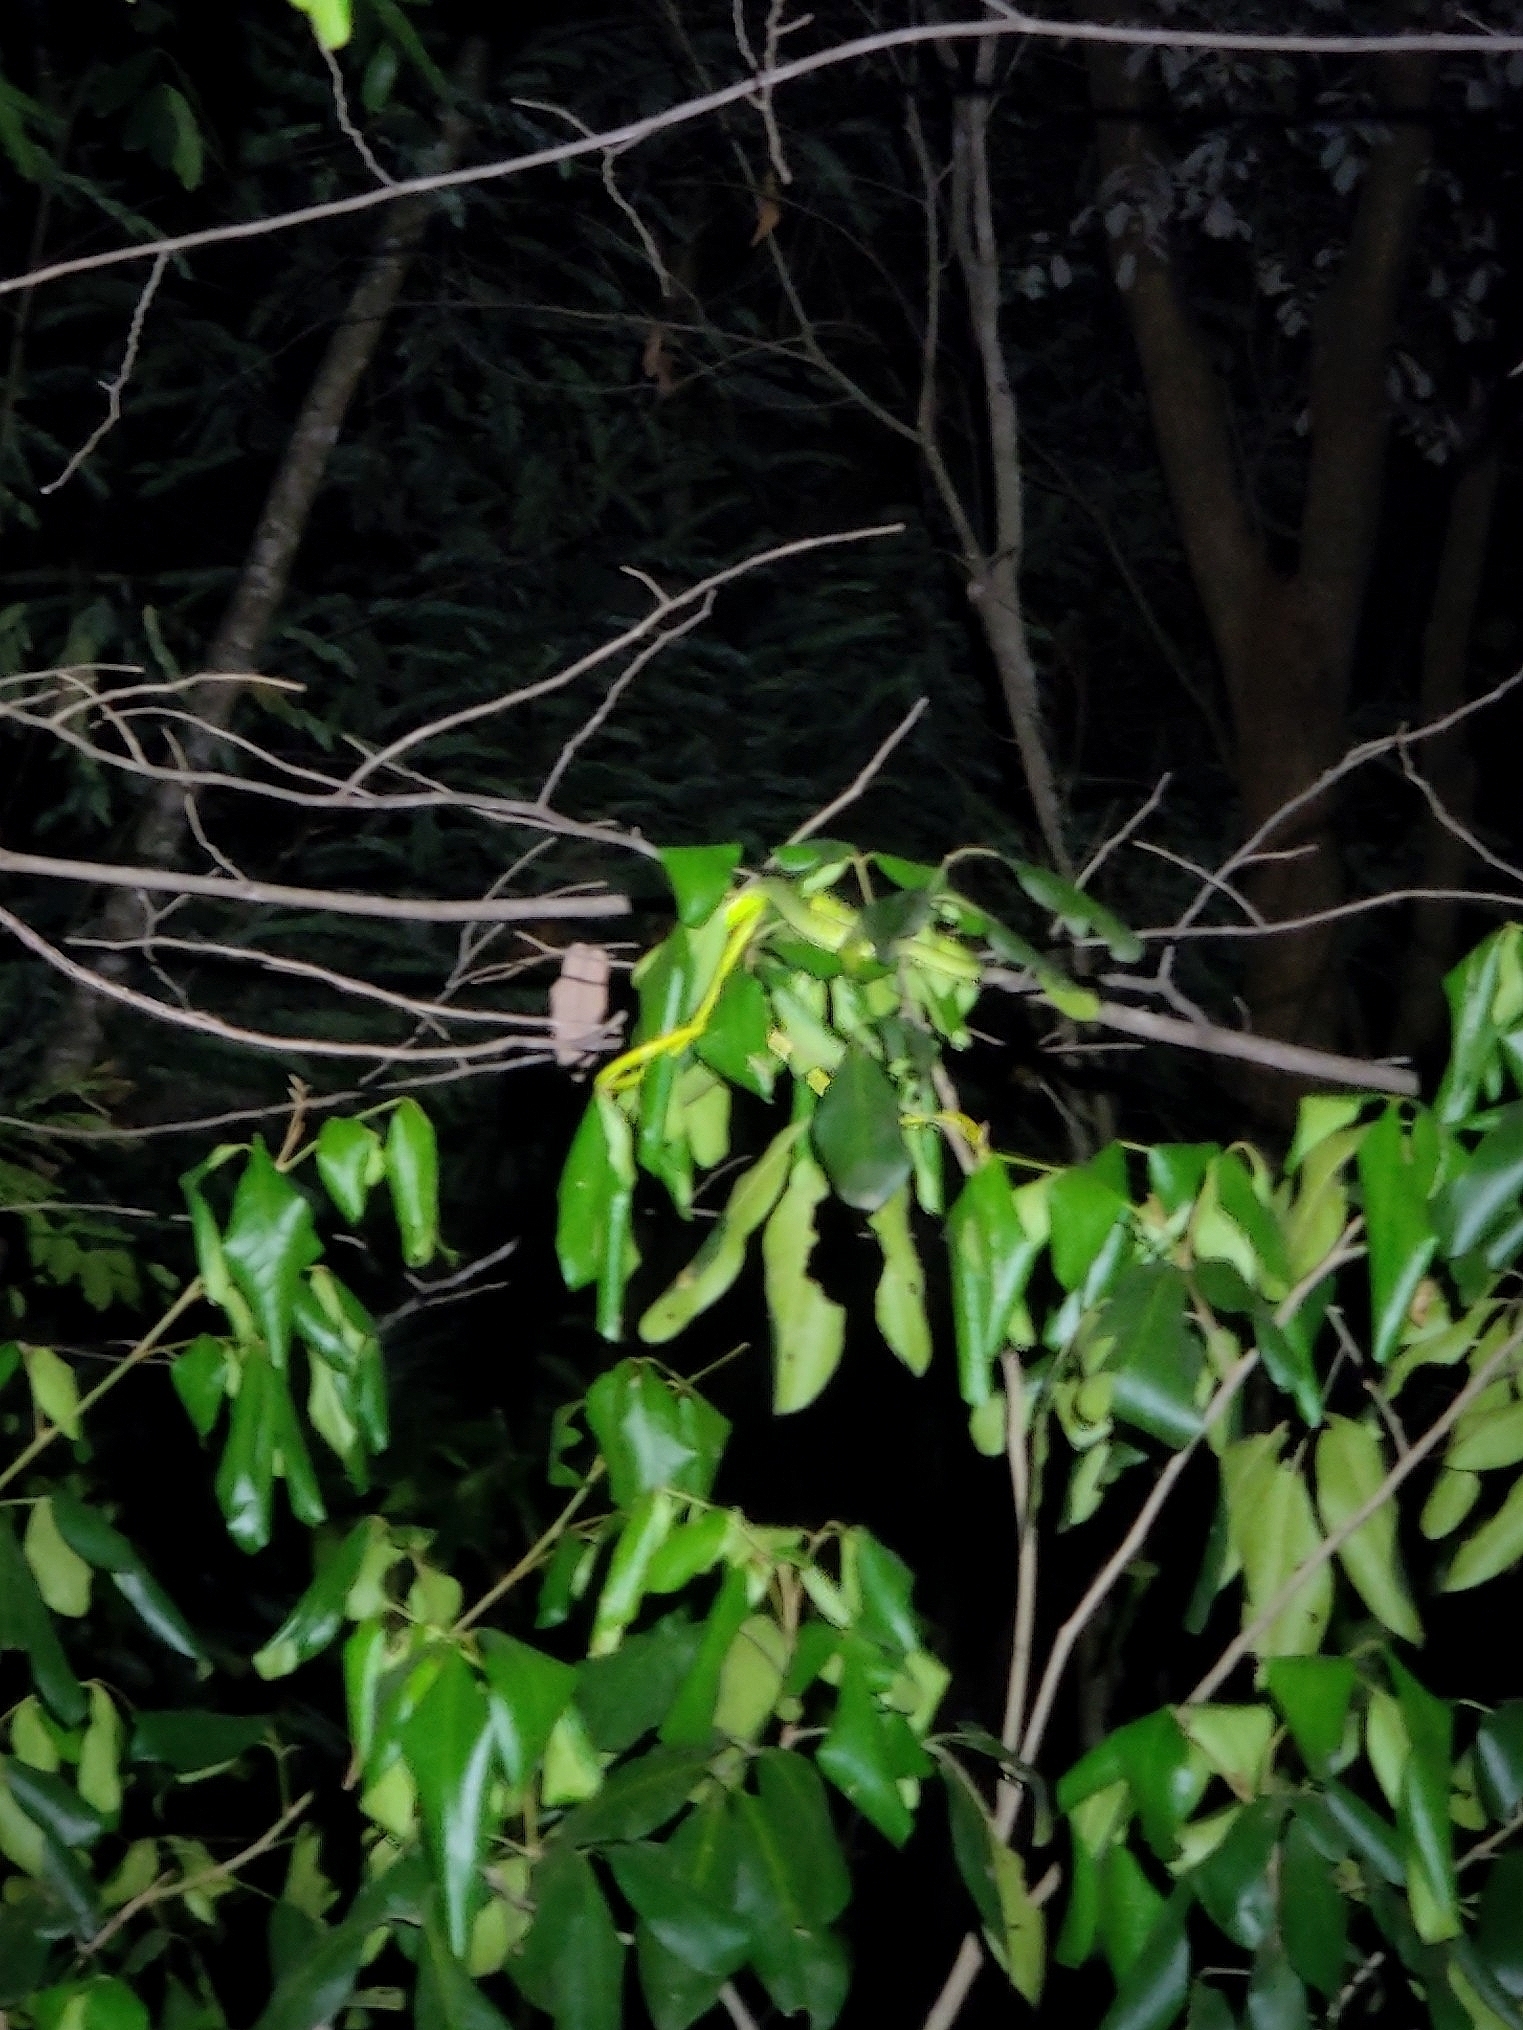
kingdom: Animalia
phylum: Chordata
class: Squamata
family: Colubridae
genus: Ahaetulla
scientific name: Ahaetulla oxyrhyncha
